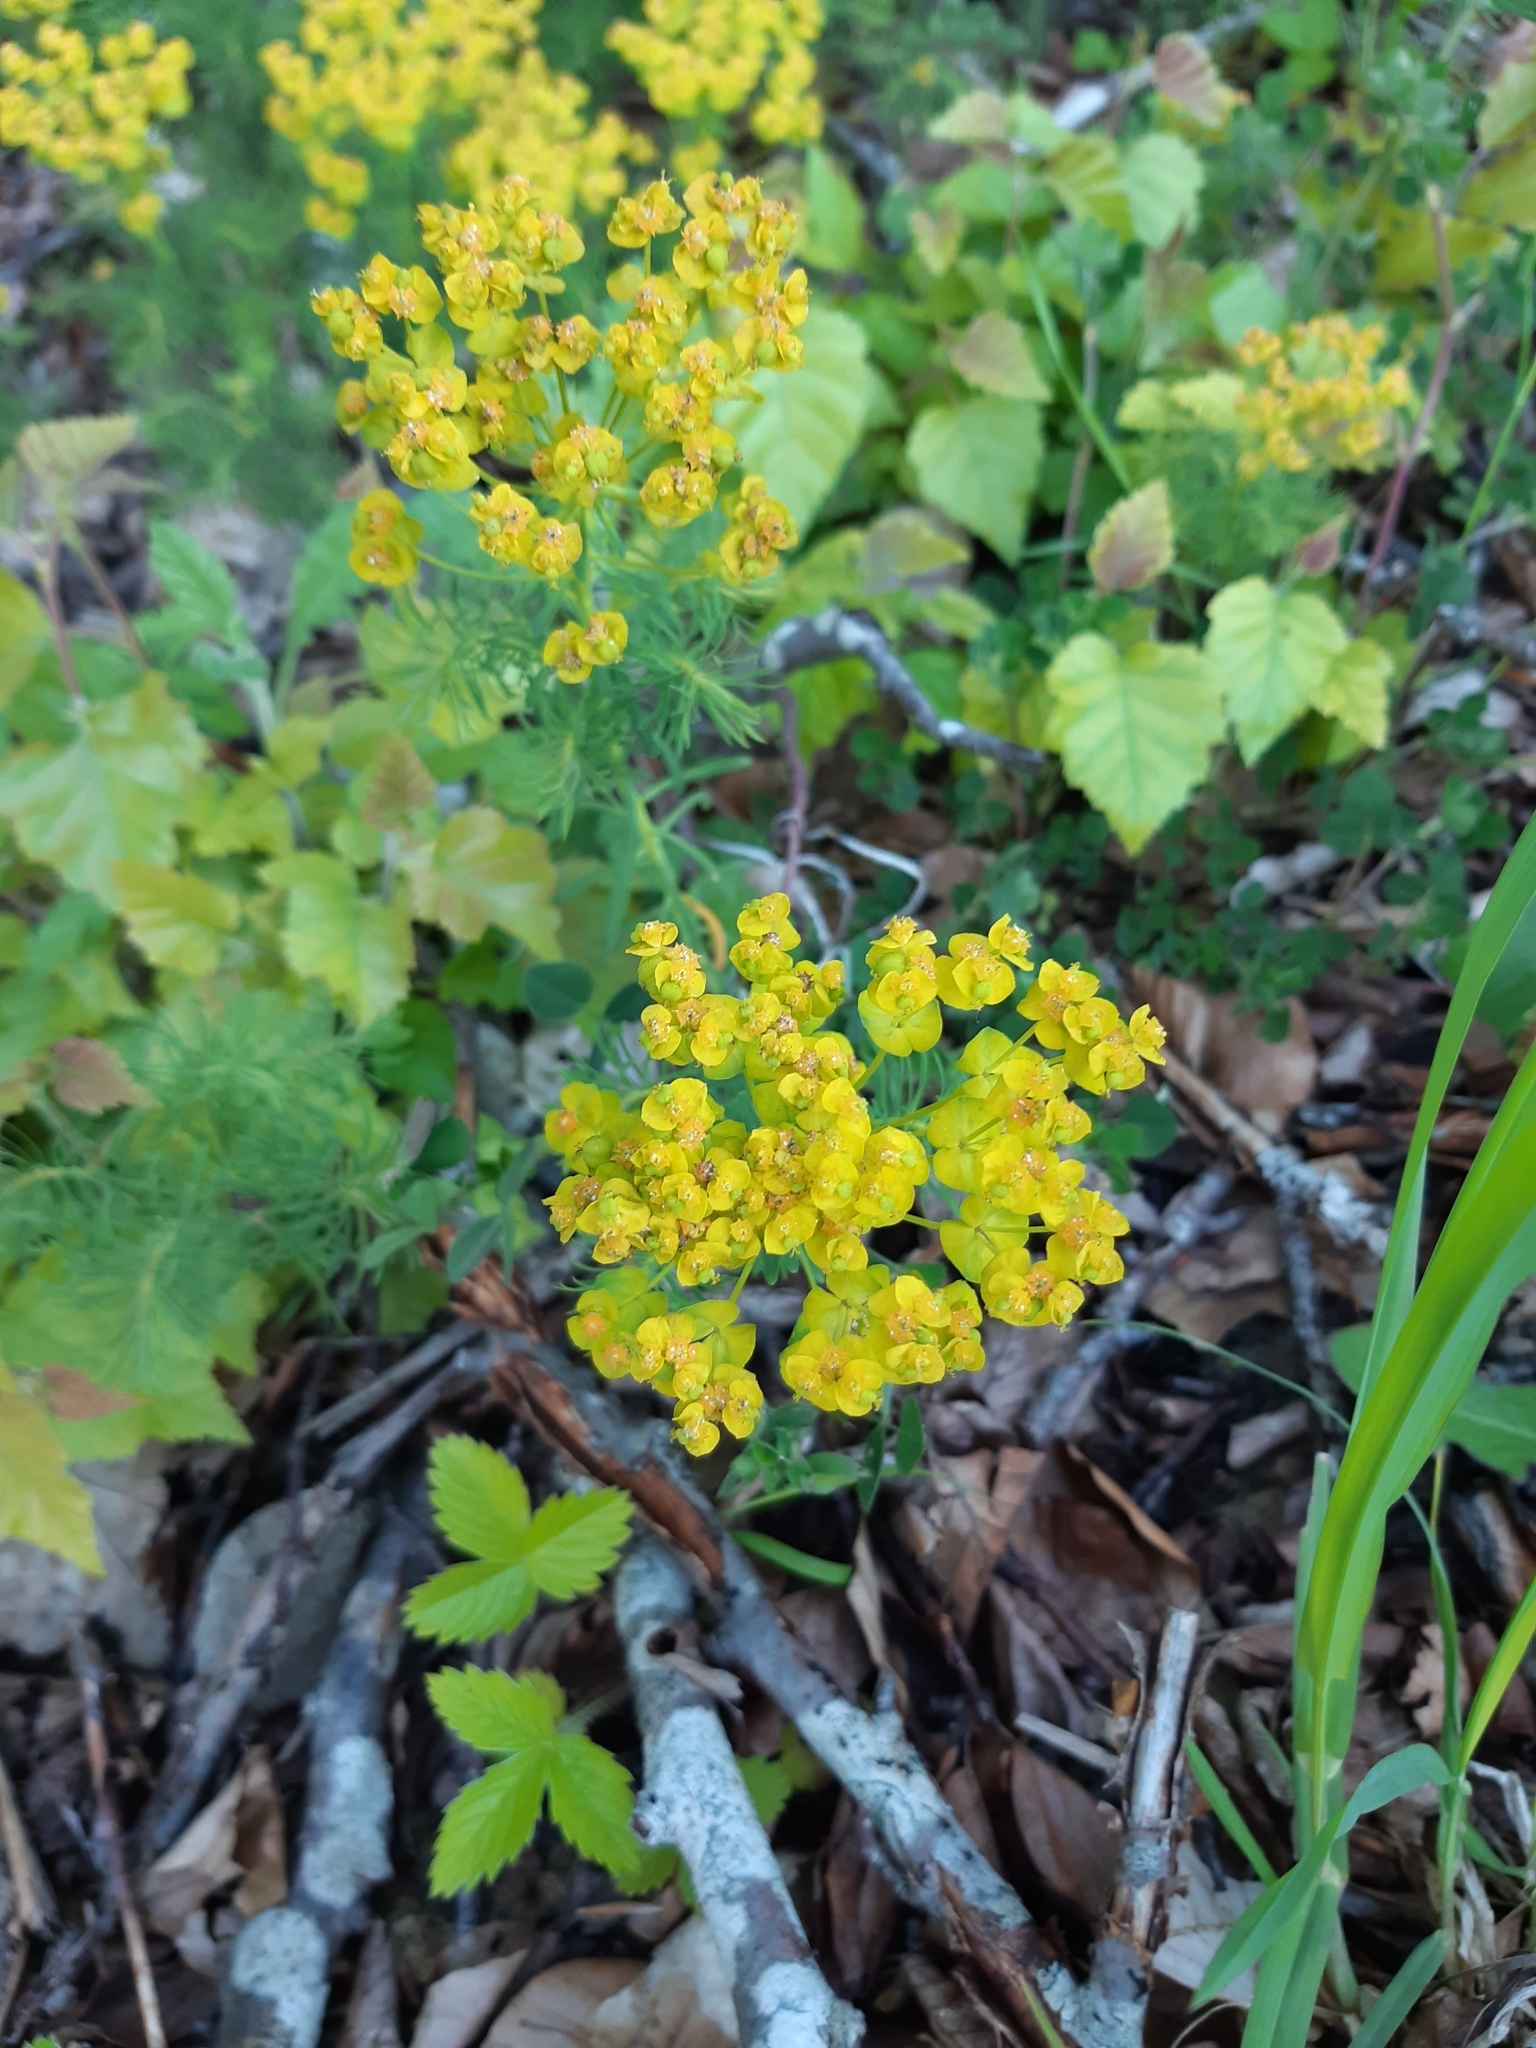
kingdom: Plantae
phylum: Tracheophyta
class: Magnoliopsida
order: Malpighiales
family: Euphorbiaceae
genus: Euphorbia
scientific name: Euphorbia cyparissias
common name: Cypress spurge
